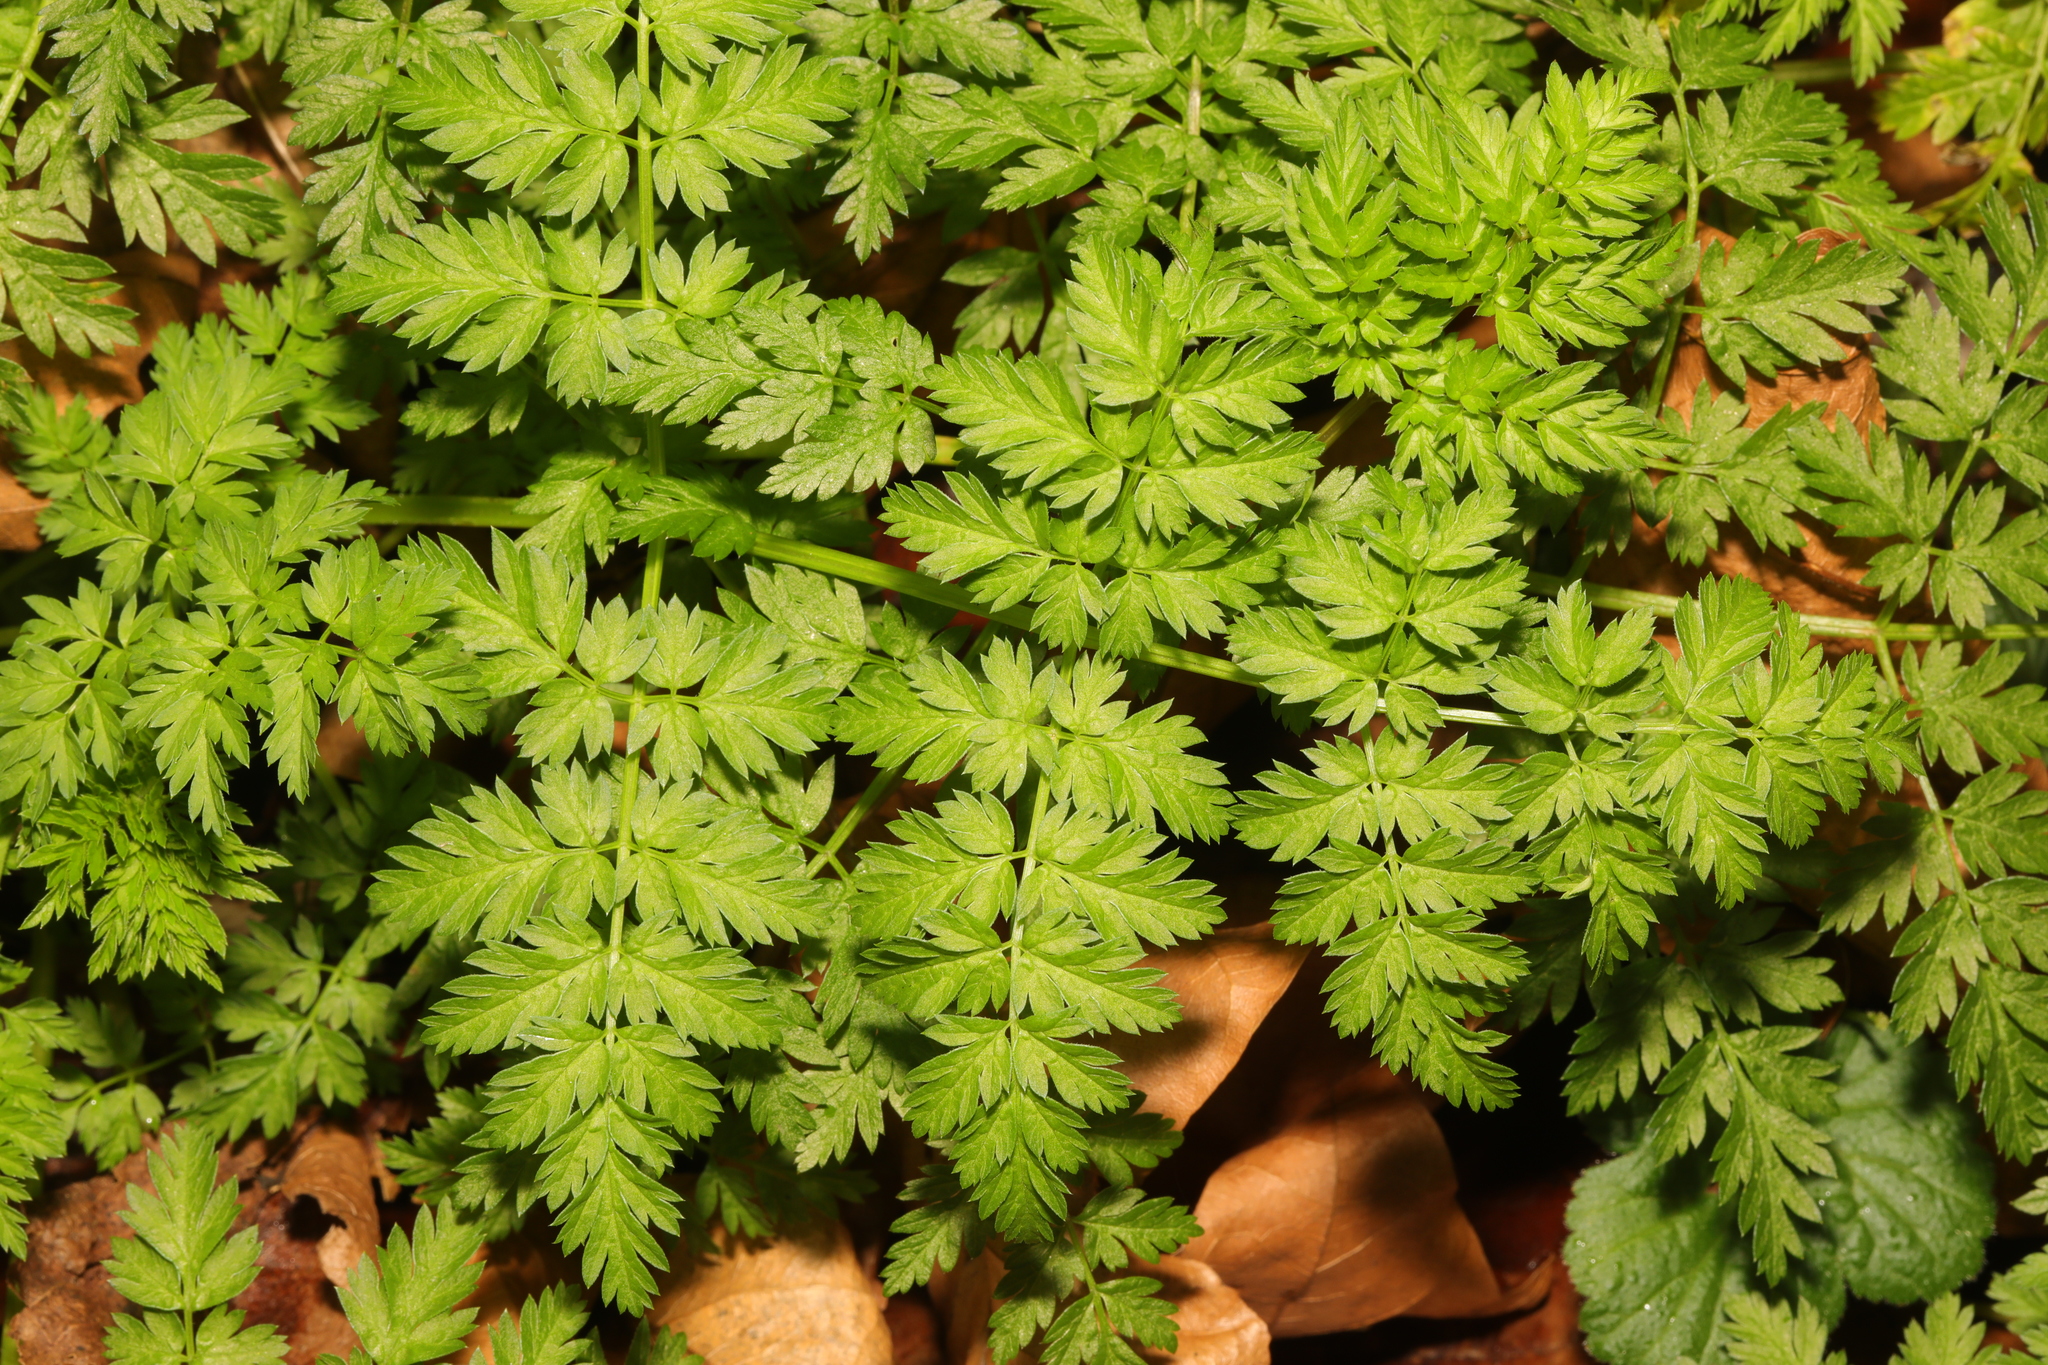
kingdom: Plantae
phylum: Tracheophyta
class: Magnoliopsida
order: Apiales
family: Apiaceae
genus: Anthriscus
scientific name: Anthriscus sylvestris
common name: Cow parsley
